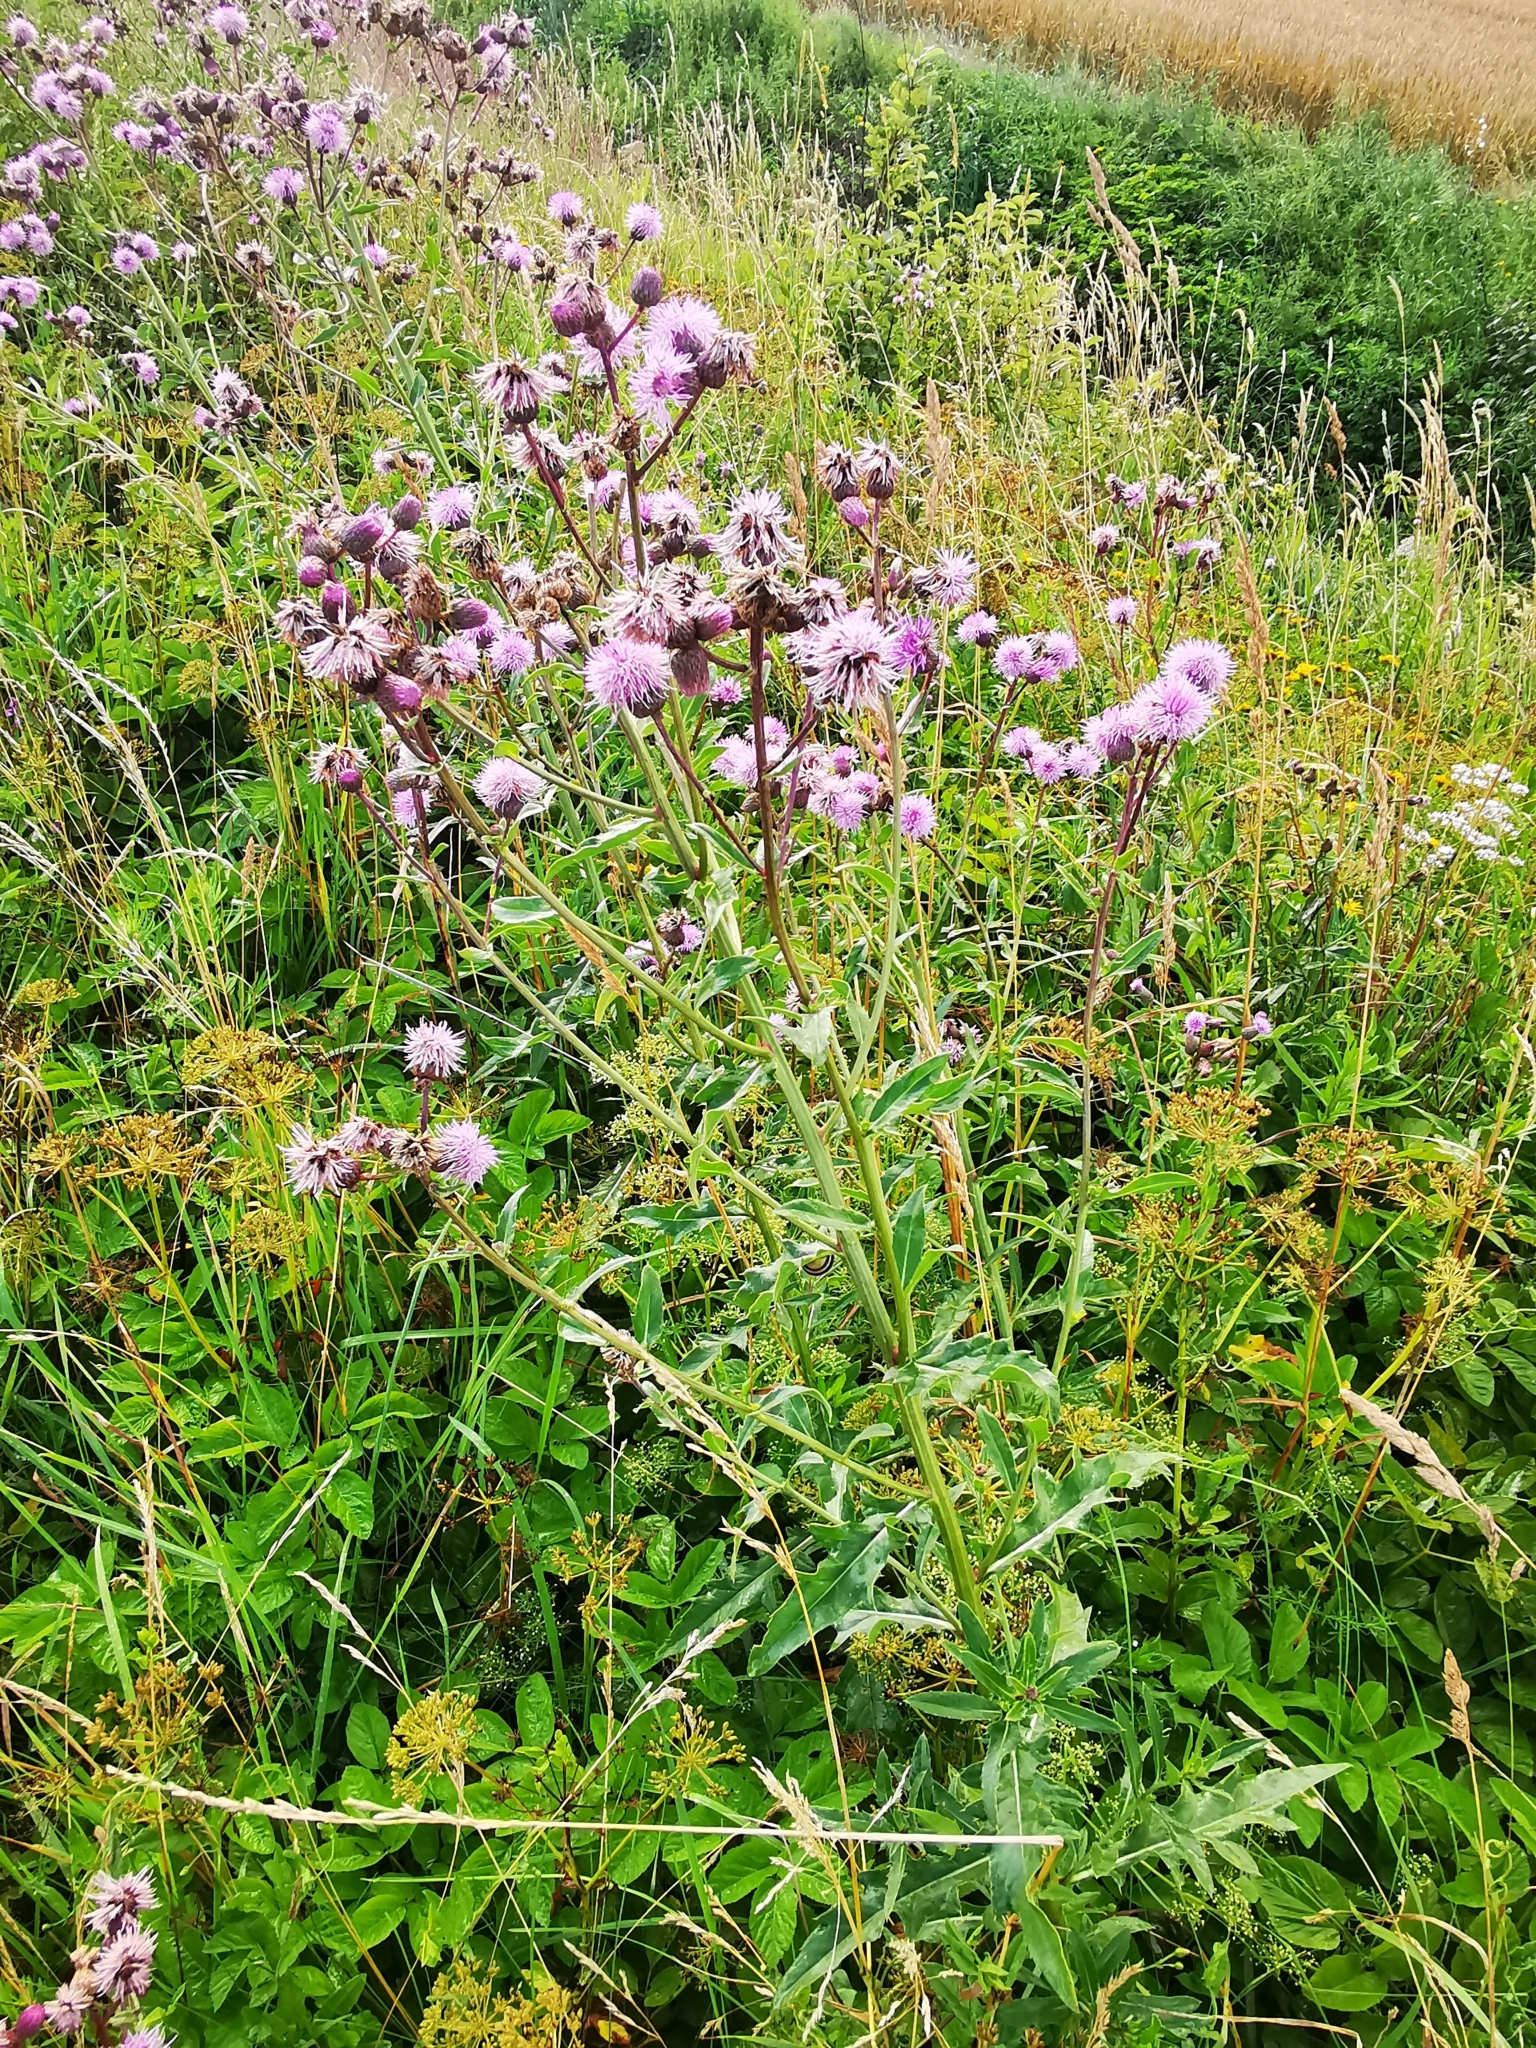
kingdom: Plantae
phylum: Tracheophyta
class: Magnoliopsida
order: Asterales
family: Asteraceae
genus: Cirsium
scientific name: Cirsium arvense
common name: Creeping thistle
